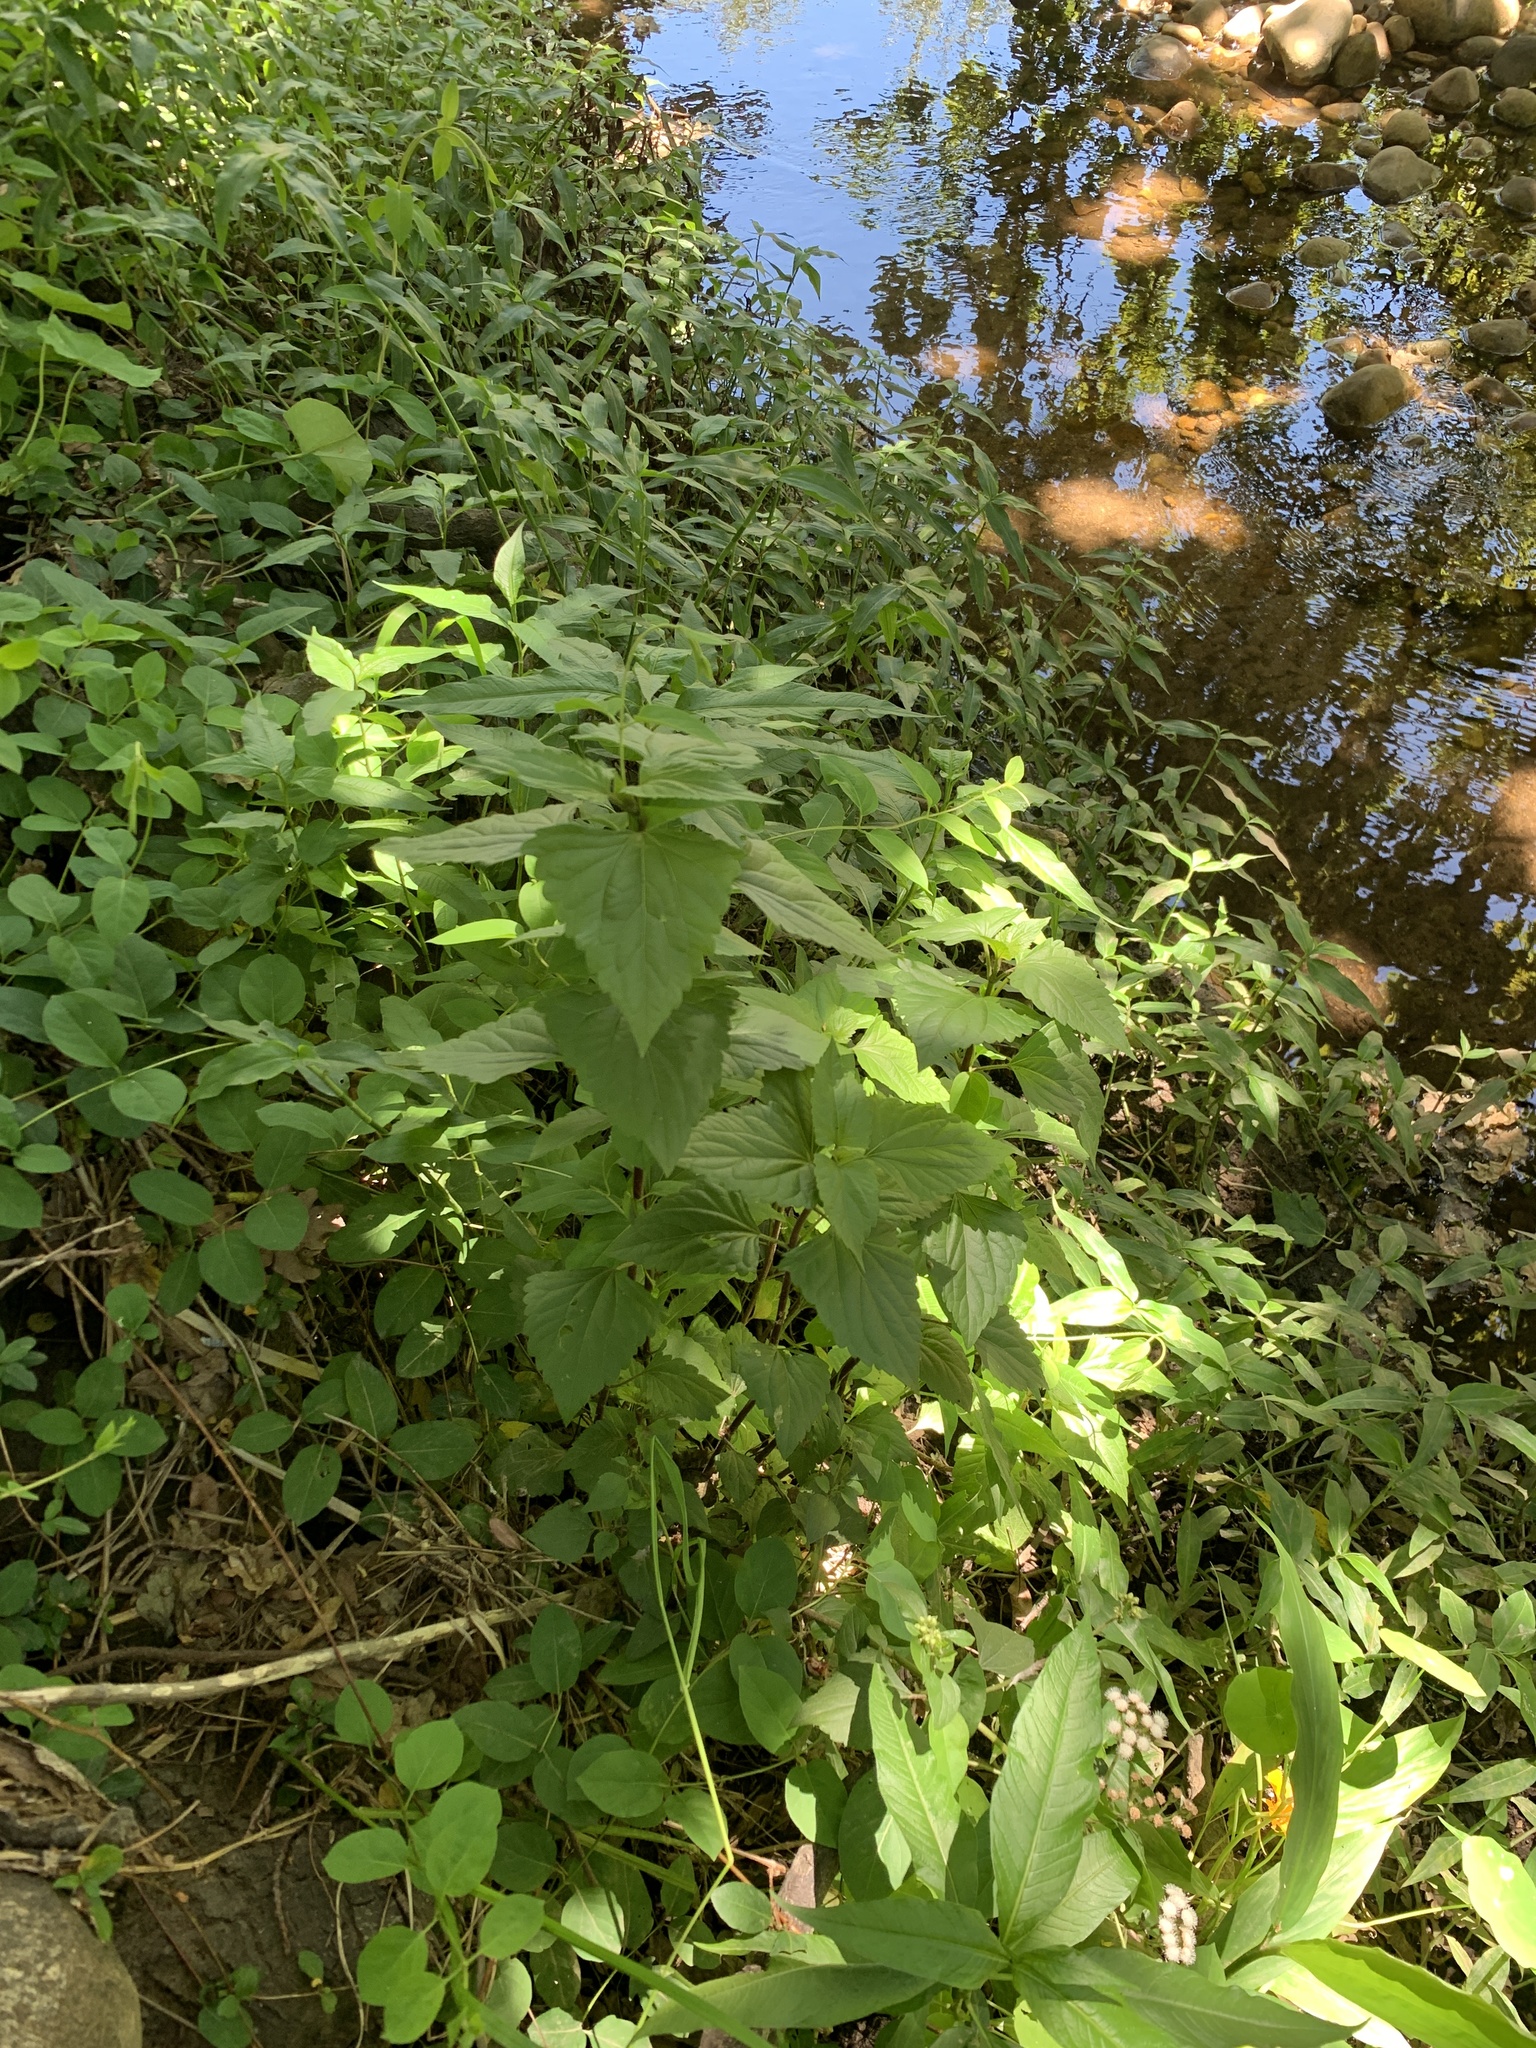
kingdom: Plantae
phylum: Tracheophyta
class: Magnoliopsida
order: Asterales
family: Asteraceae
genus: Ageratina
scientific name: Ageratina adenophora
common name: Sticky snakeroot
